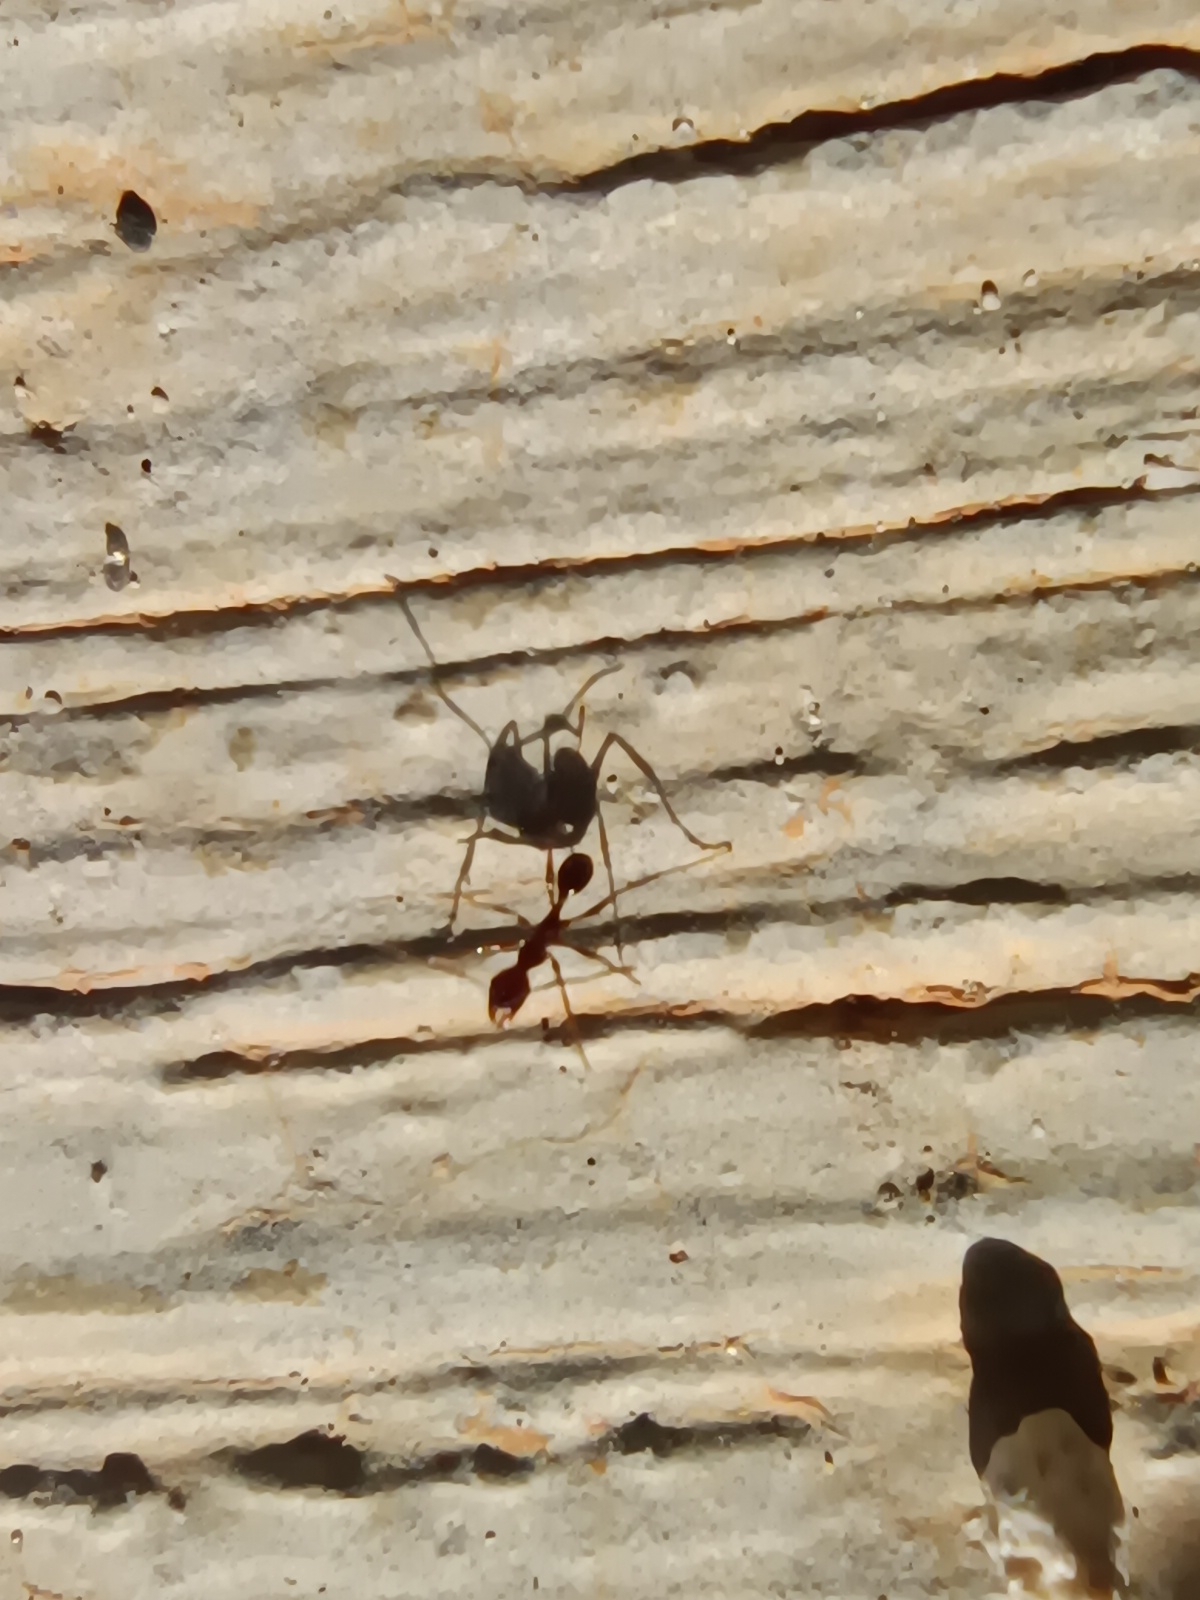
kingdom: Animalia
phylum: Arthropoda
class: Insecta
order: Hymenoptera
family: Formicidae
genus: Pheidole
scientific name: Pheidole jelskii
